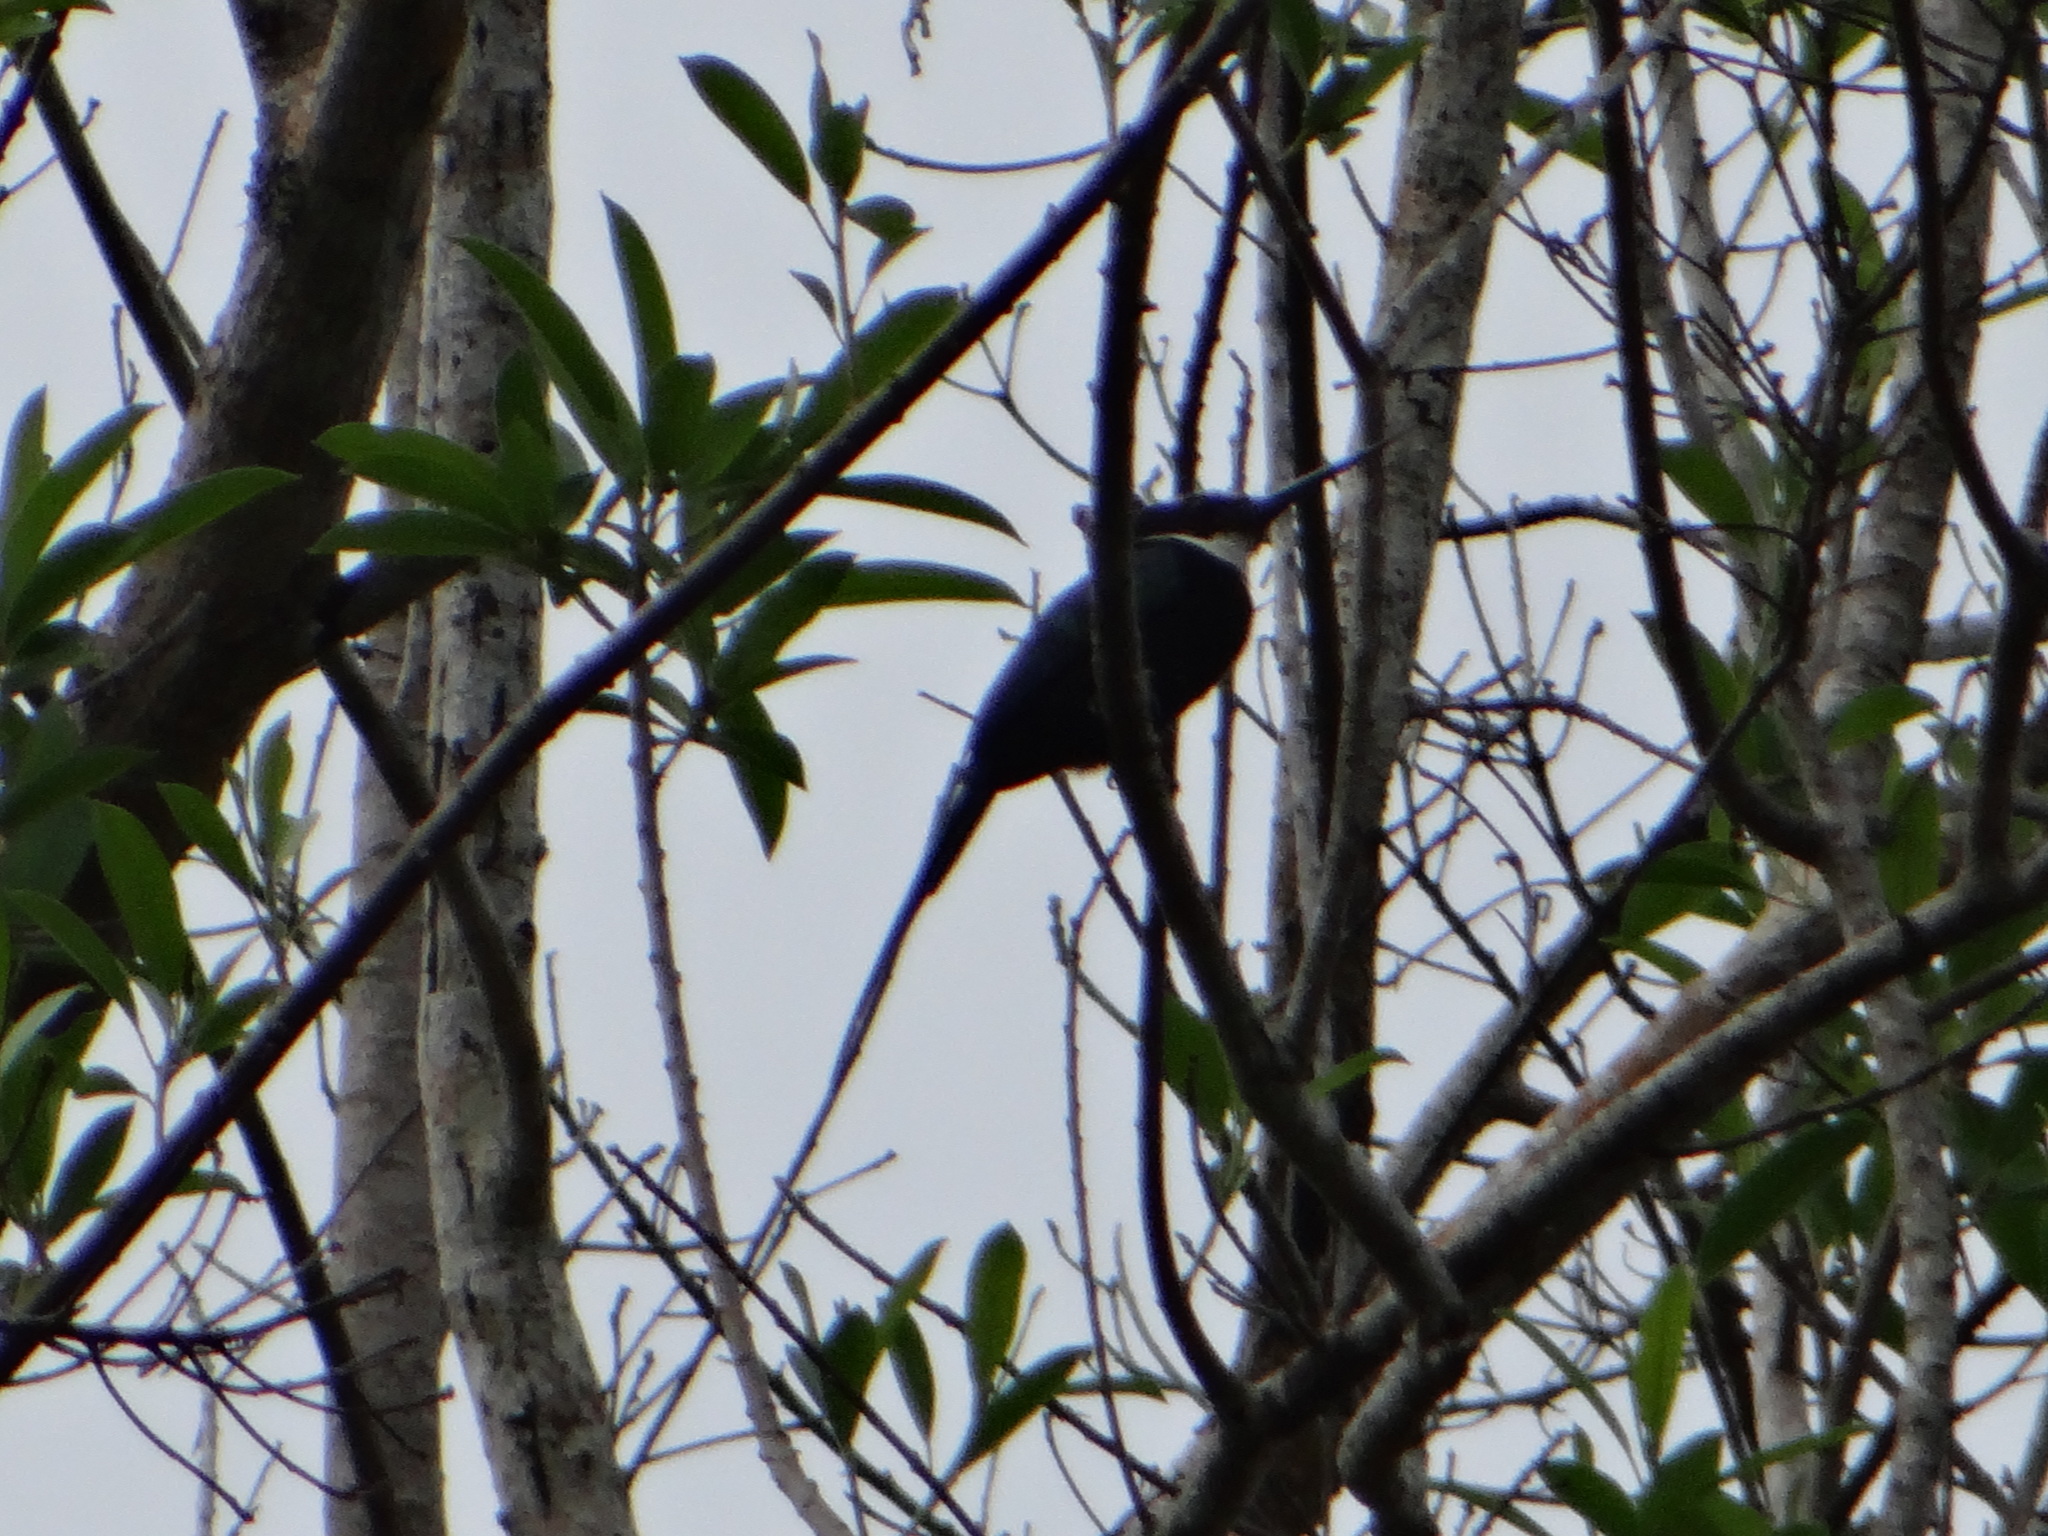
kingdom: Animalia
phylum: Chordata
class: Aves
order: Piciformes
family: Galbulidae
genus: Galbula
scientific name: Galbula dea
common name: Paradise jacamar
